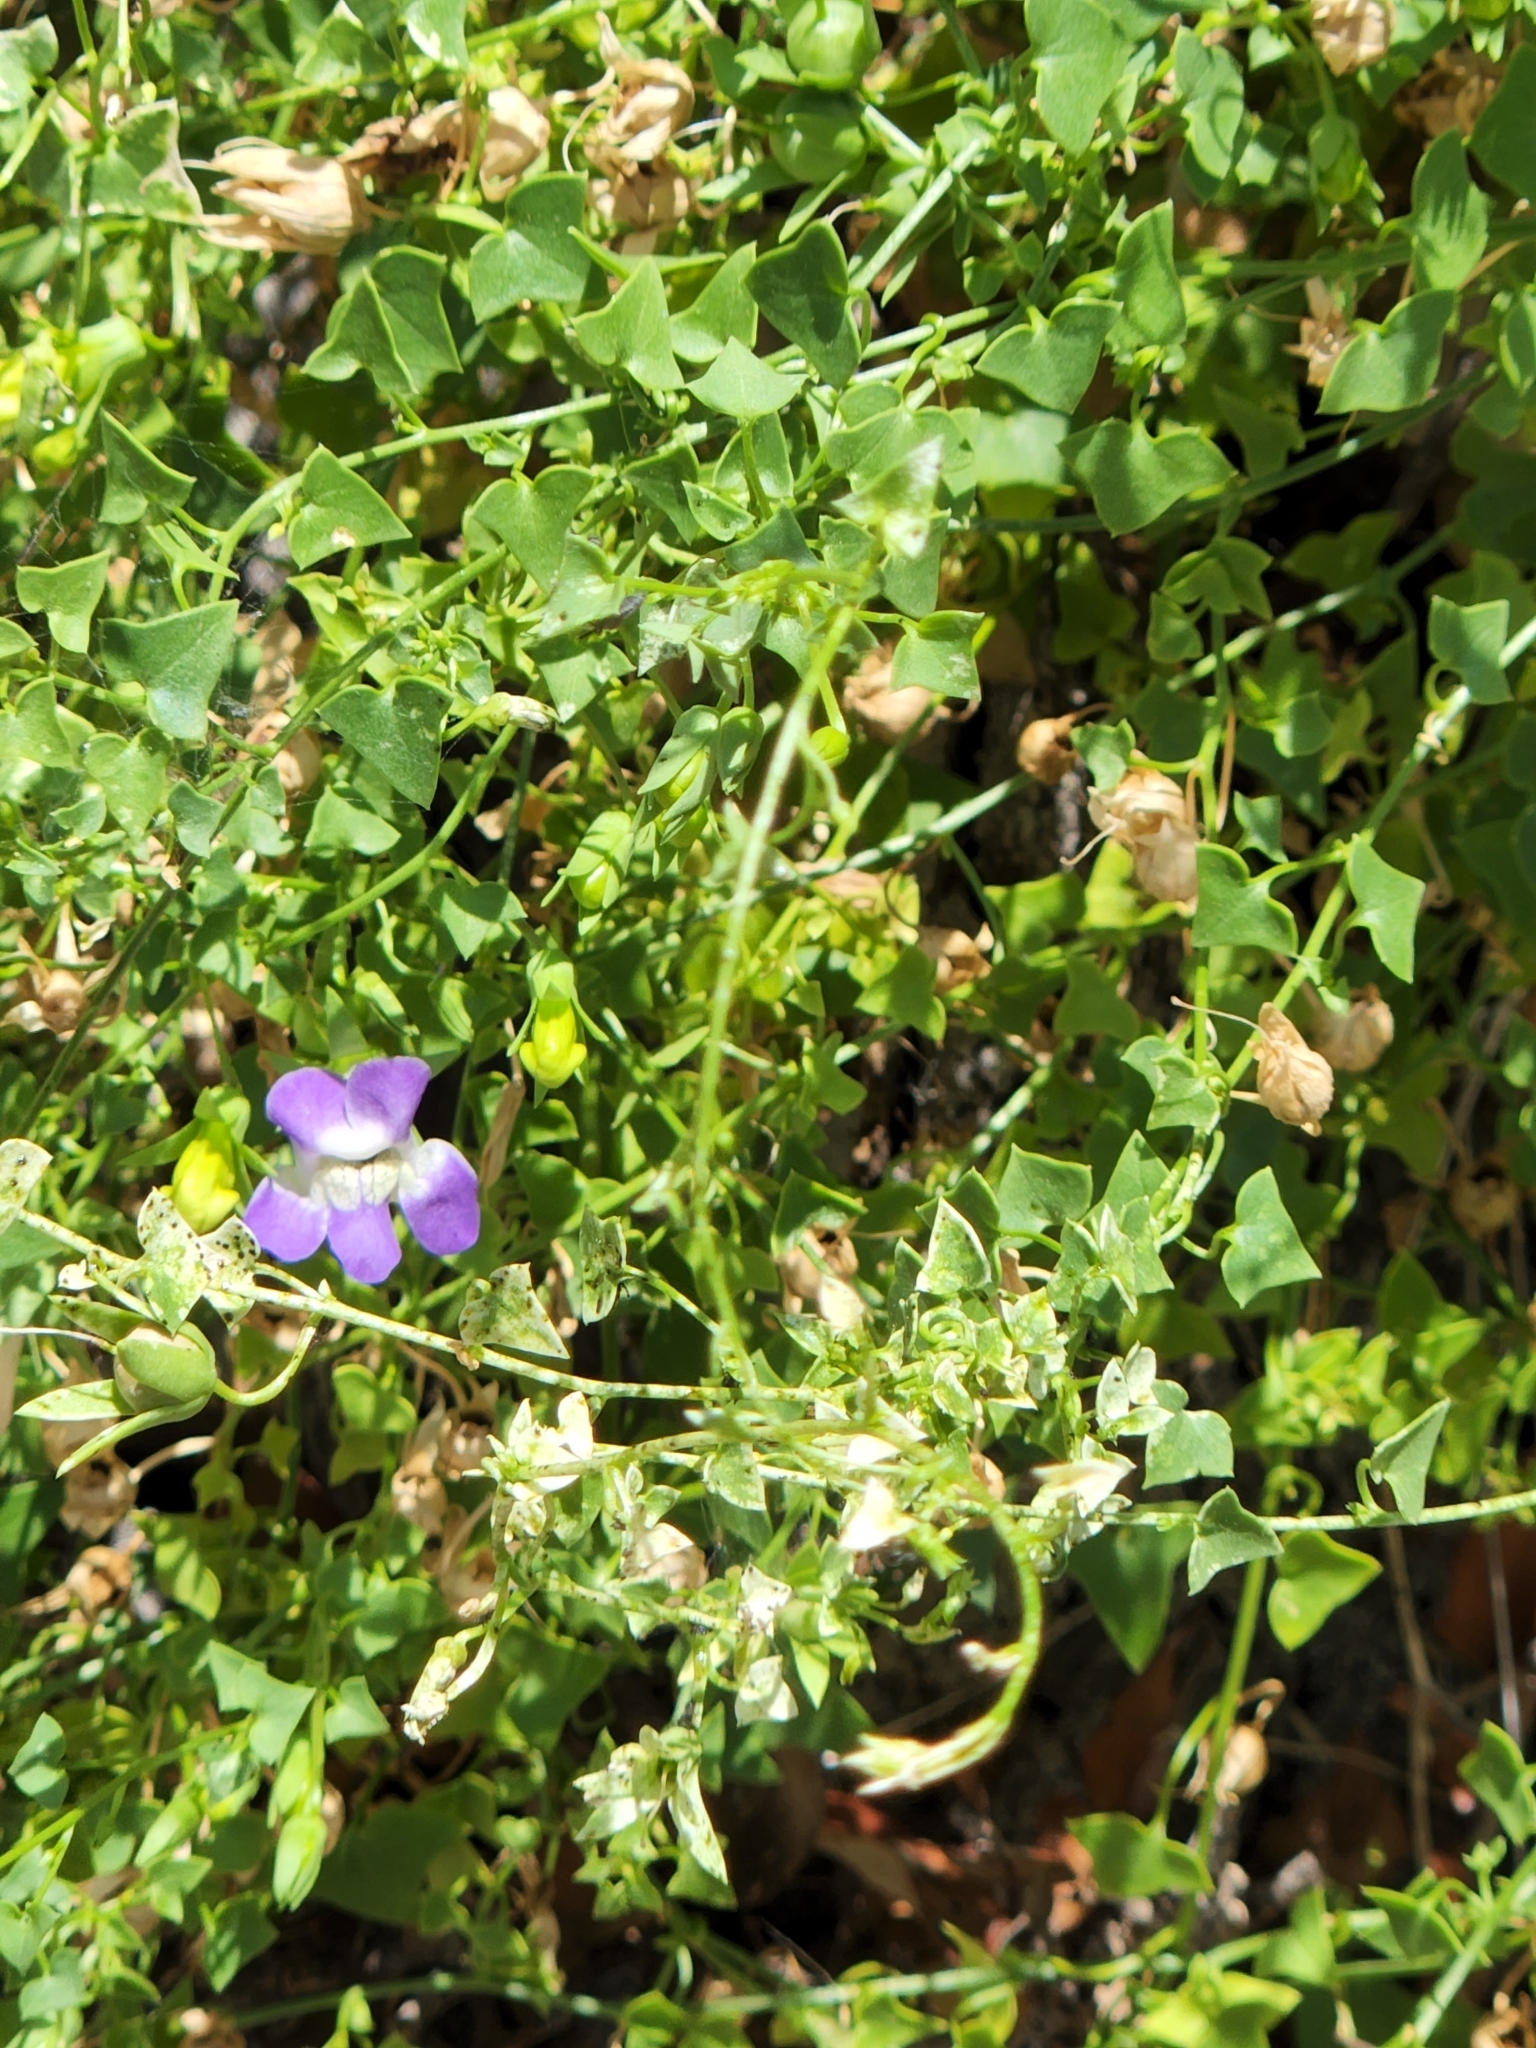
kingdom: Plantae
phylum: Tracheophyta
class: Magnoliopsida
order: Lamiales
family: Plantaginaceae
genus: Maurandella
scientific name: Maurandella antirrhiniflora
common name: Violet twining-snapdragon
